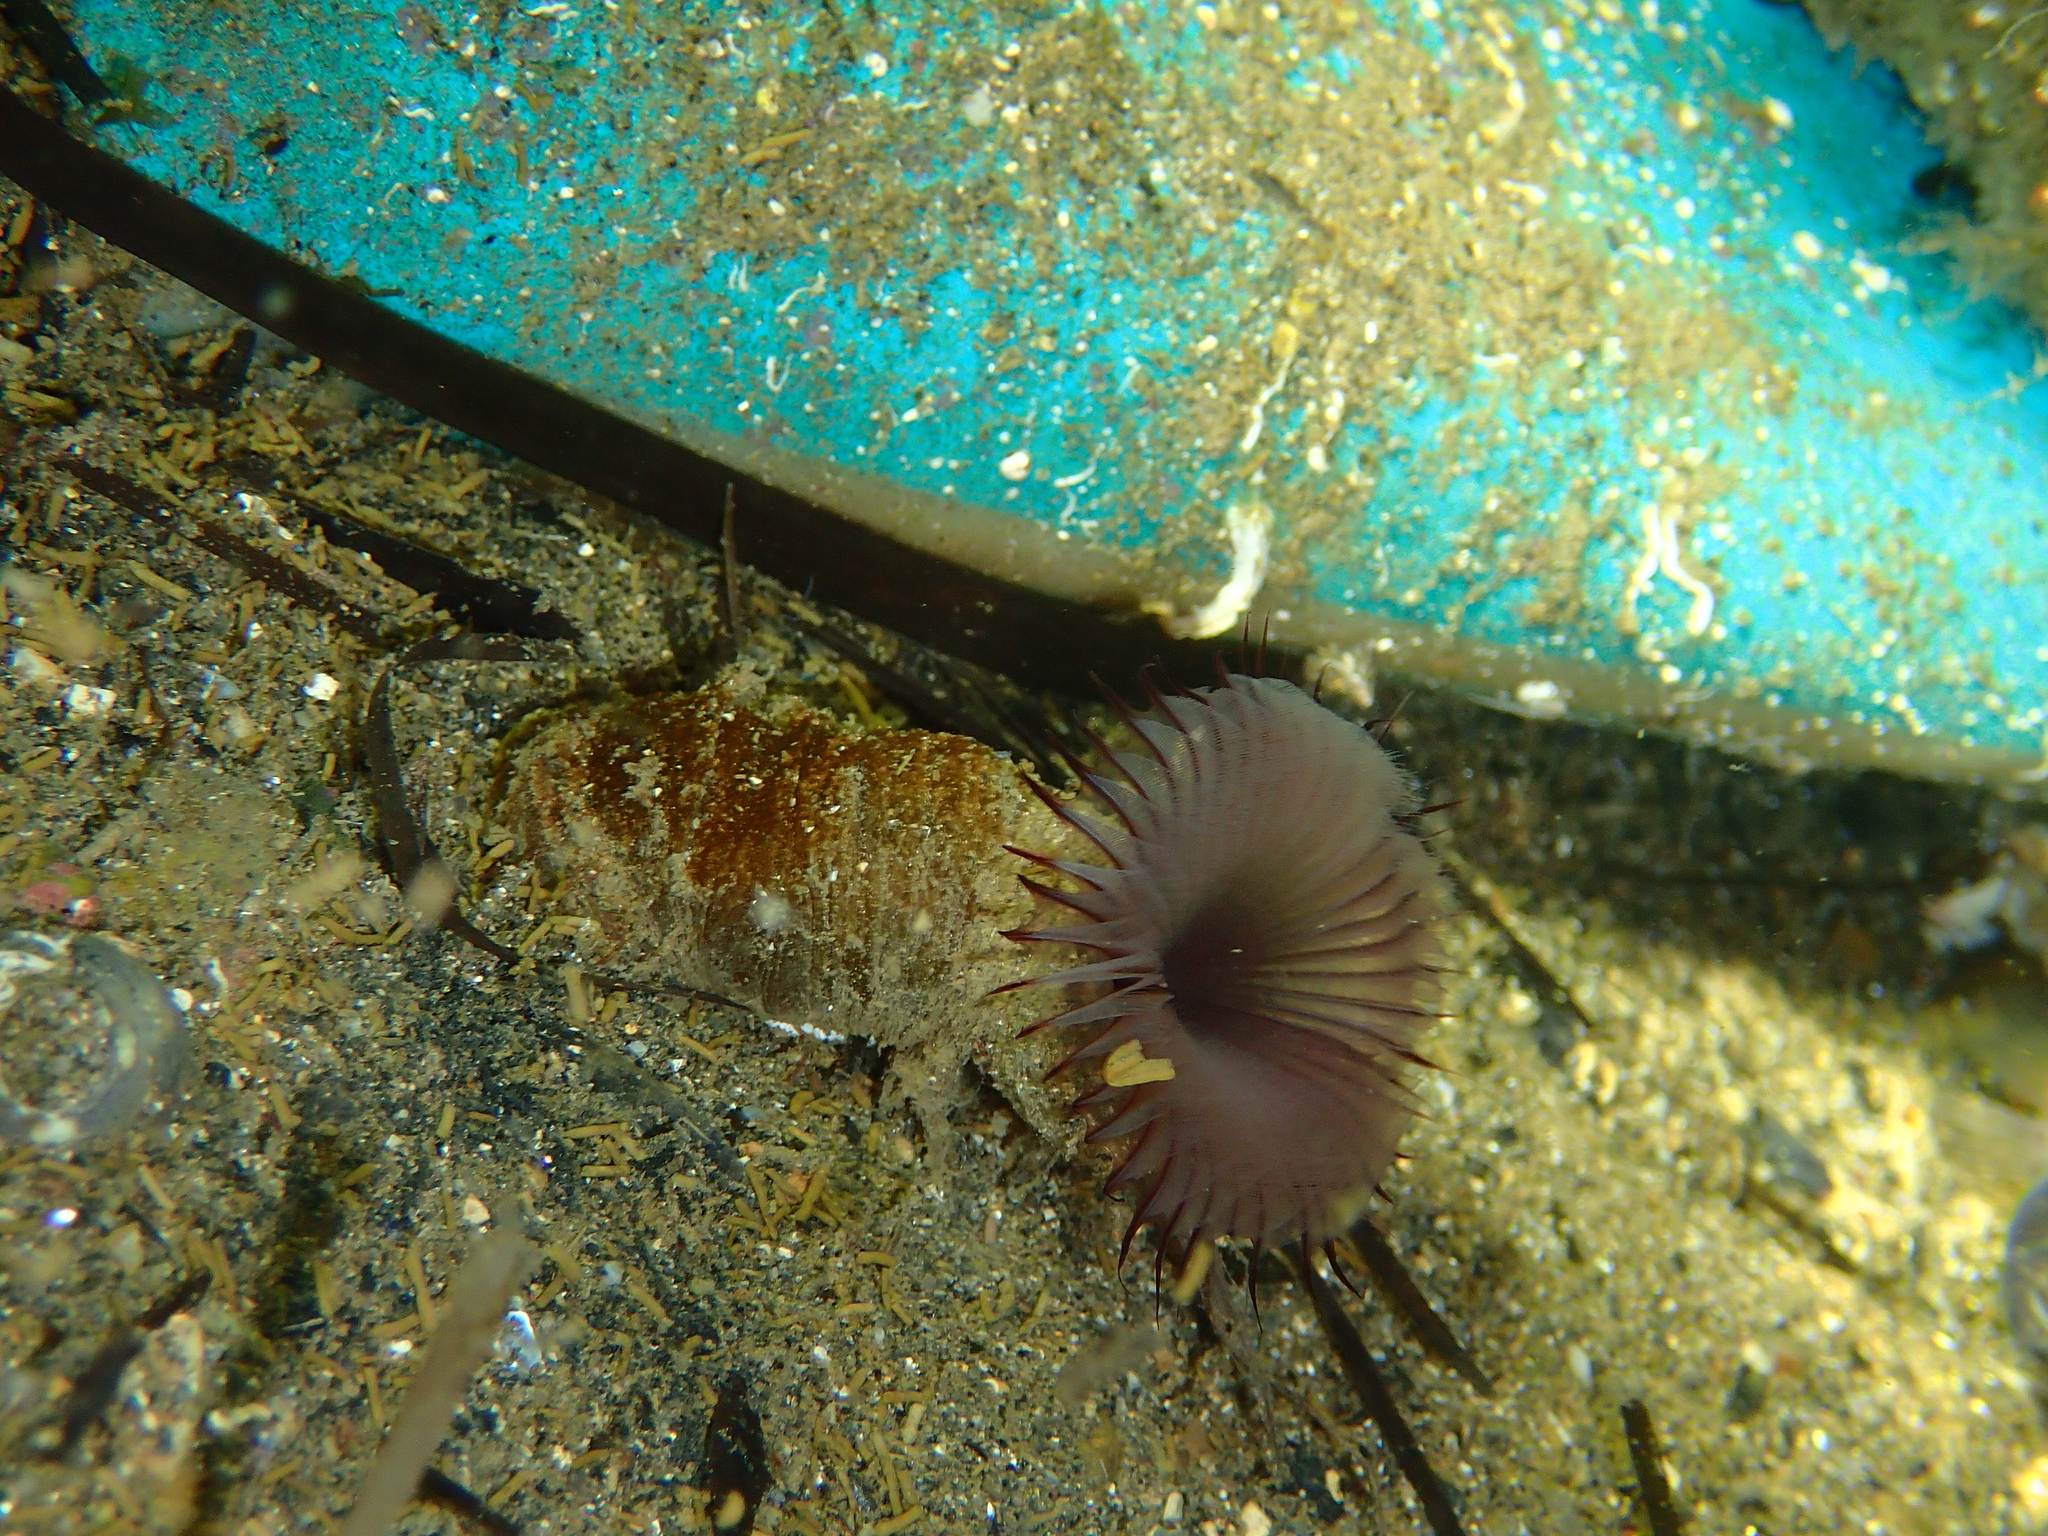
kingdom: Animalia
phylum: Annelida
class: Polychaeta
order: Sabellida
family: Sabellidae
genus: Myxicola
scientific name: Myxicola infundibulum
